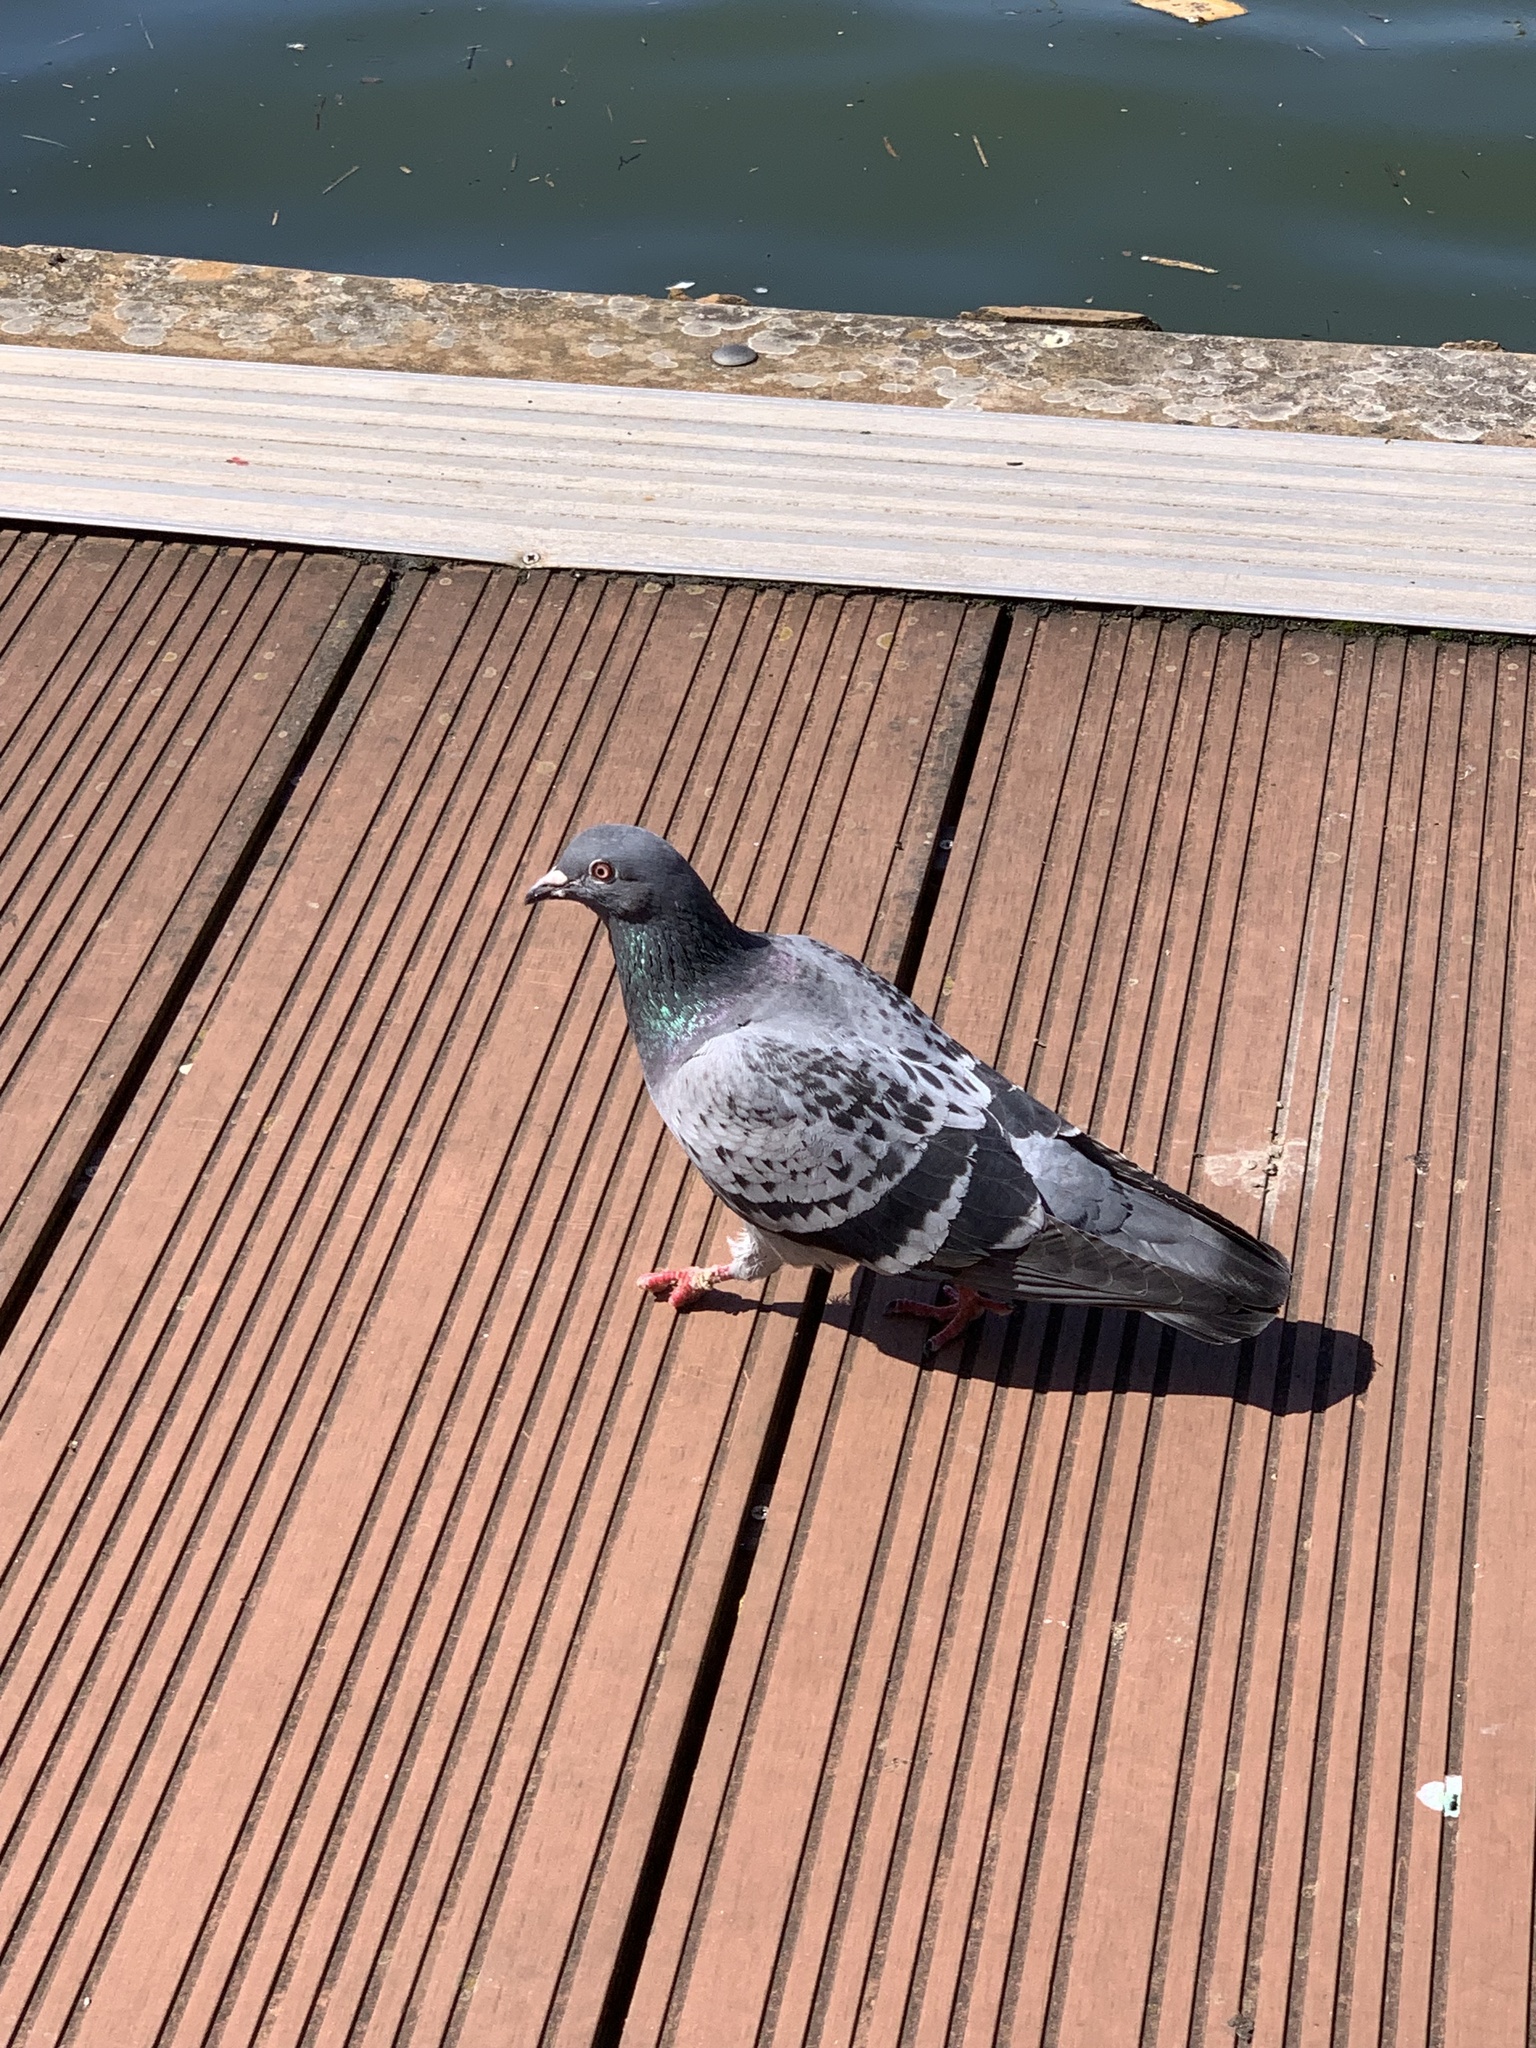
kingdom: Animalia
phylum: Chordata
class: Aves
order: Columbiformes
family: Columbidae
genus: Columba
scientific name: Columba livia
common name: Rock pigeon
